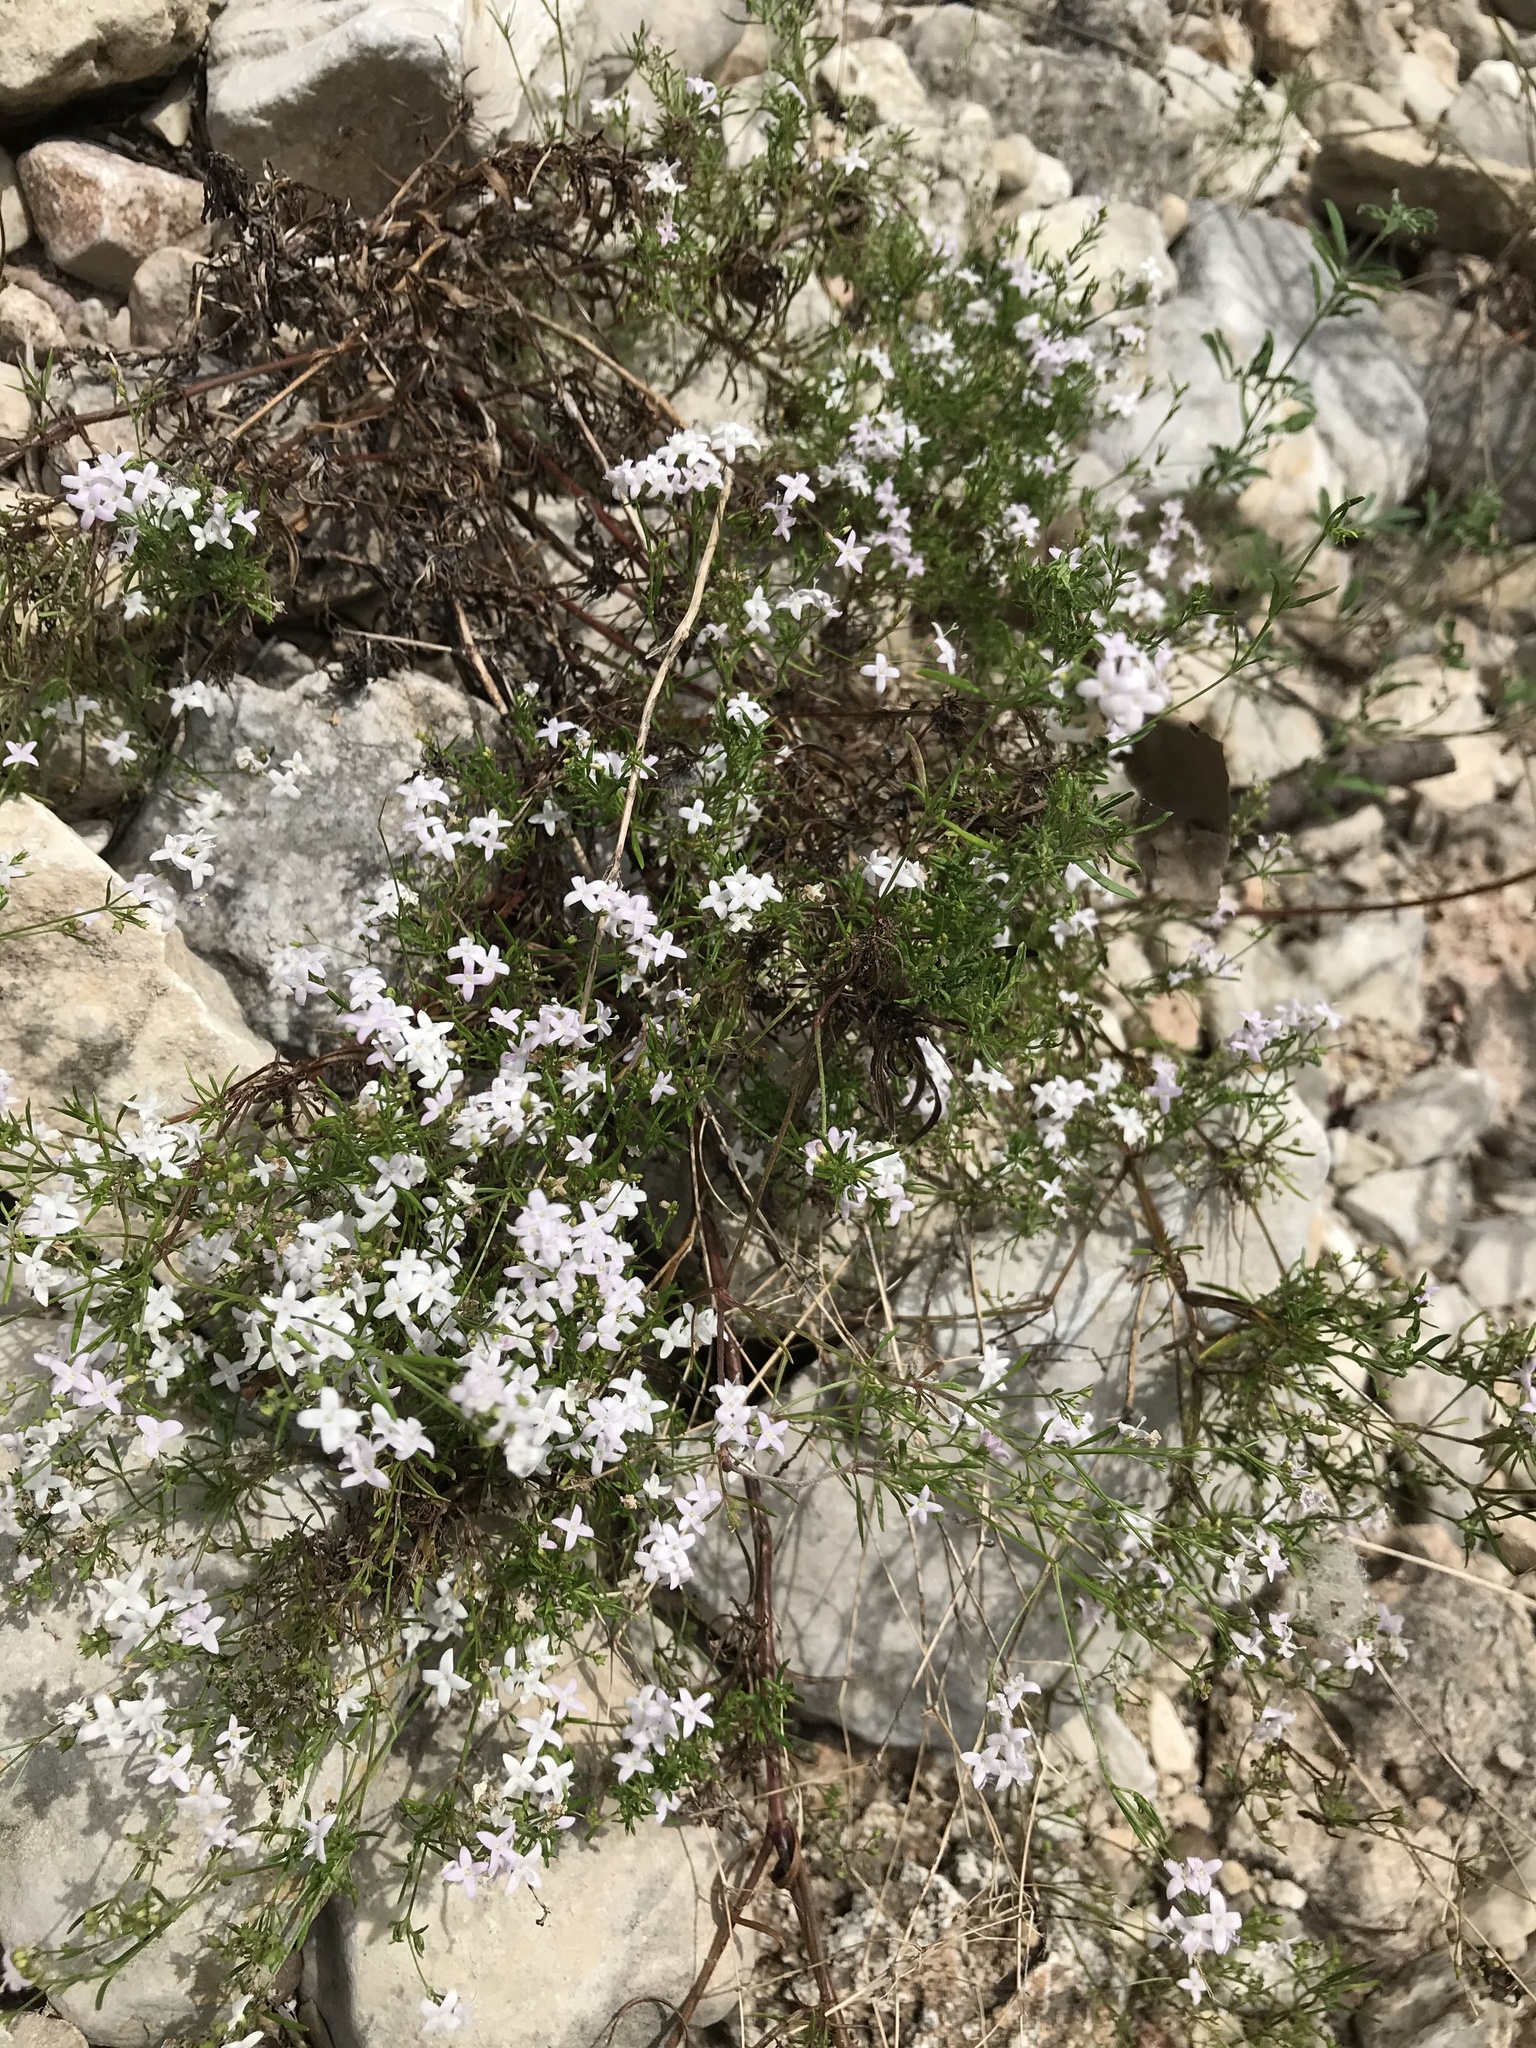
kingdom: Plantae
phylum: Tracheophyta
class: Magnoliopsida
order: Gentianales
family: Rubiaceae
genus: Stenaria
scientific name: Stenaria nigricans
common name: Diamondflowers
